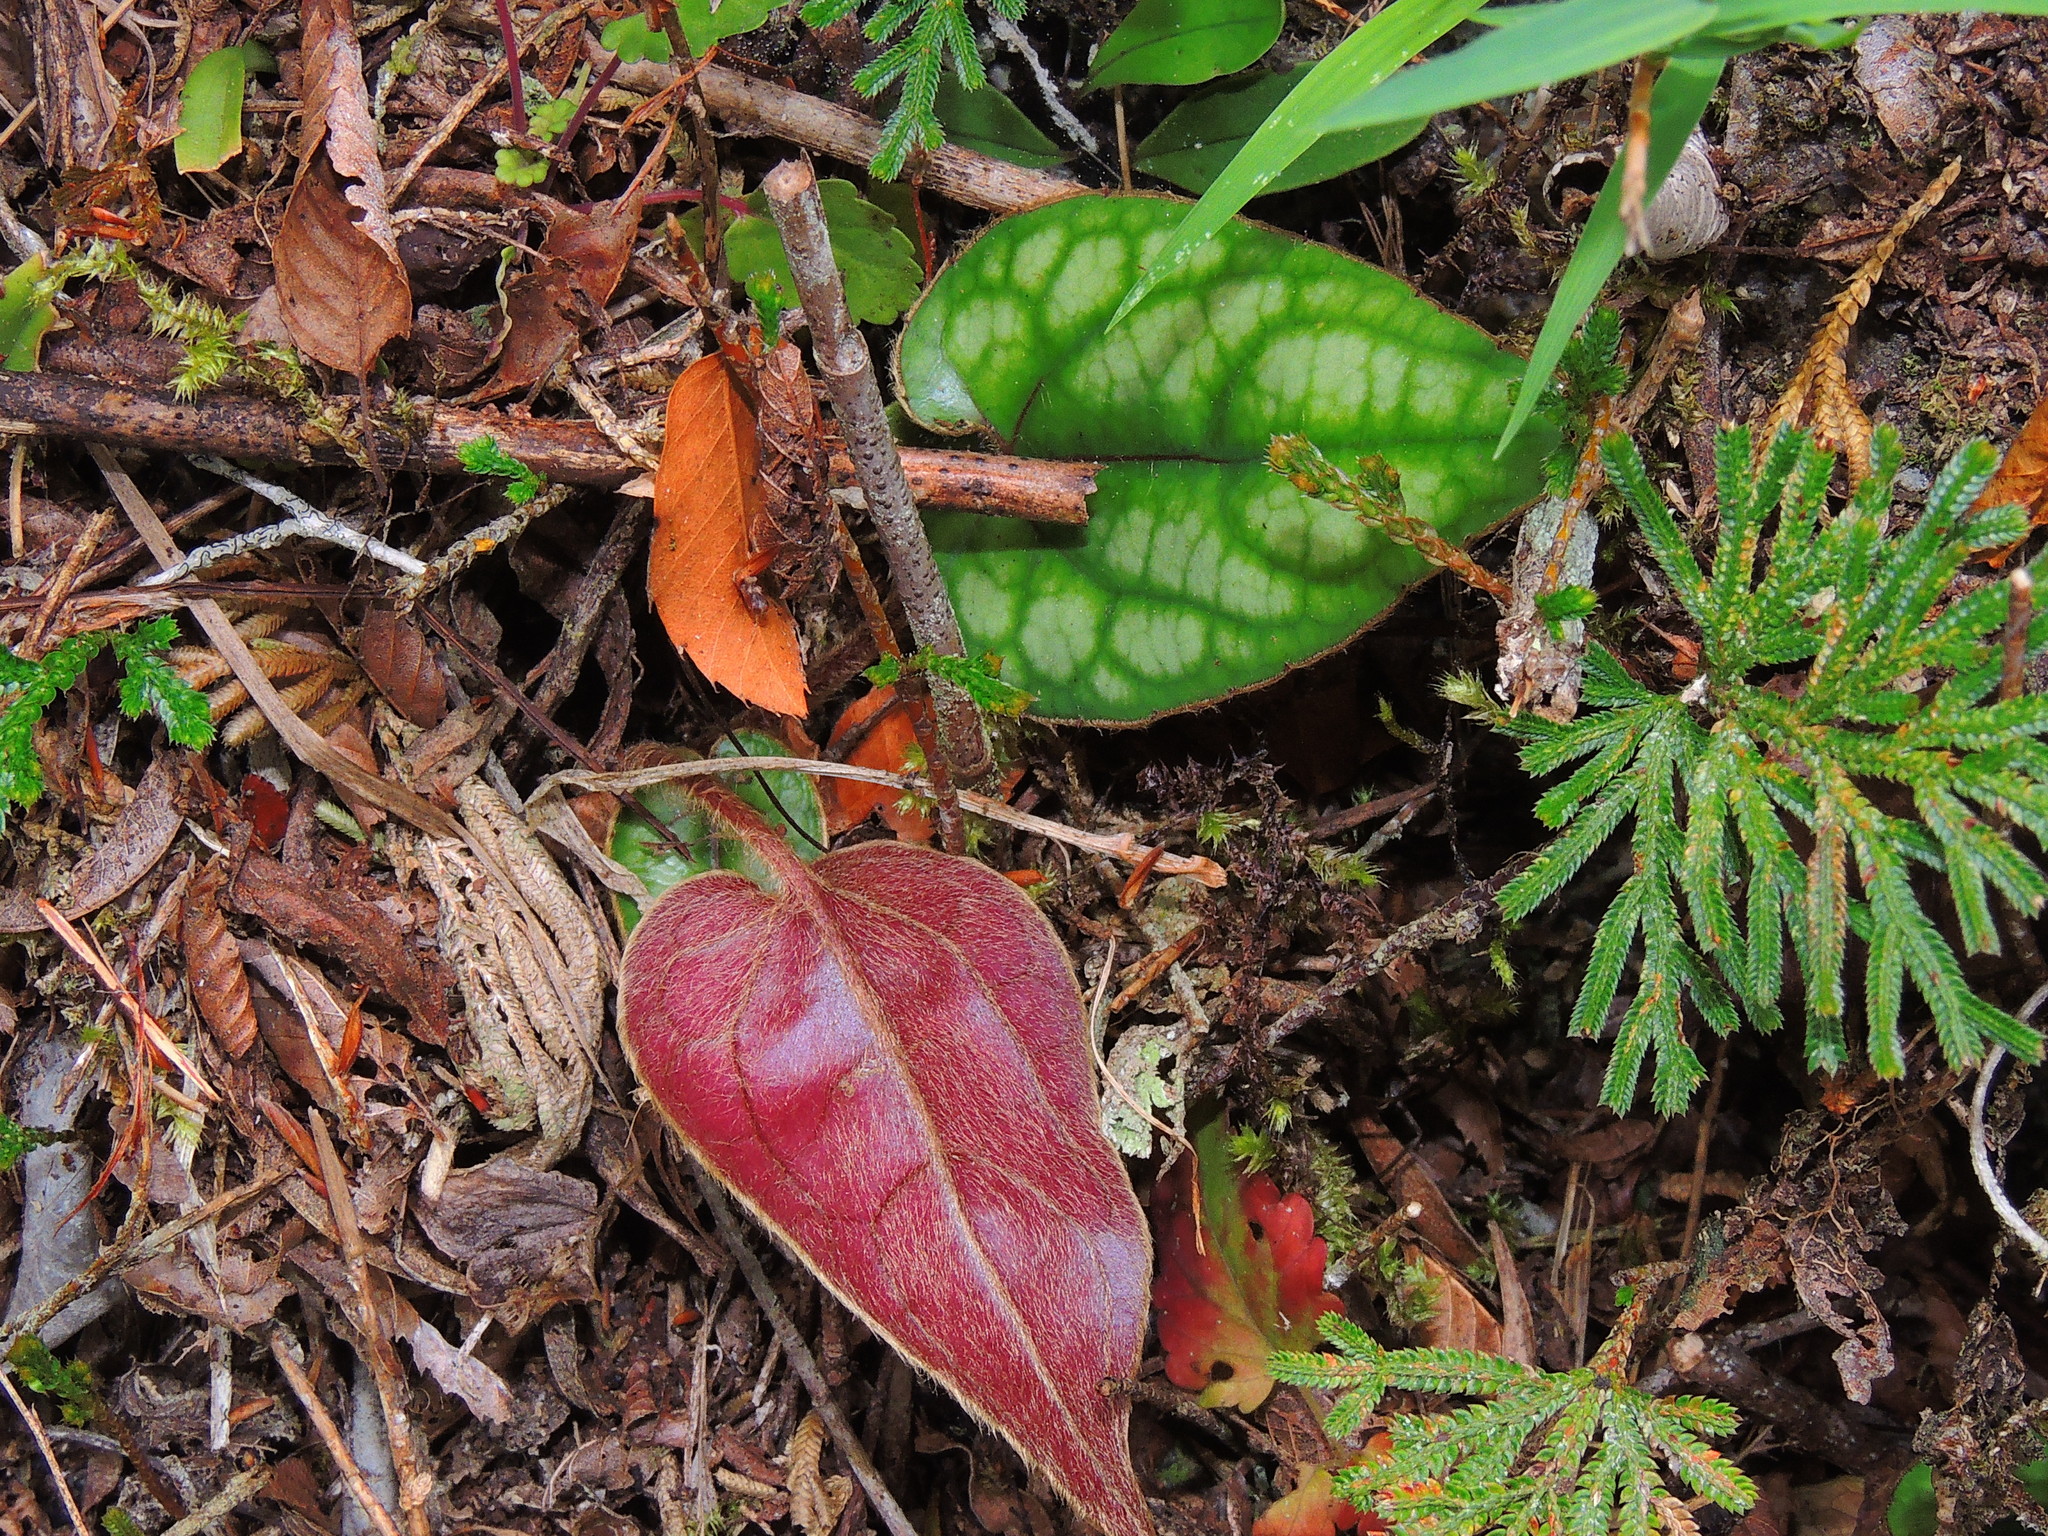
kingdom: Plantae
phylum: Tracheophyta
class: Magnoliopsida
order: Asterales
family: Asteraceae
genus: Ainsliaea
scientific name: Ainsliaea fragrans
